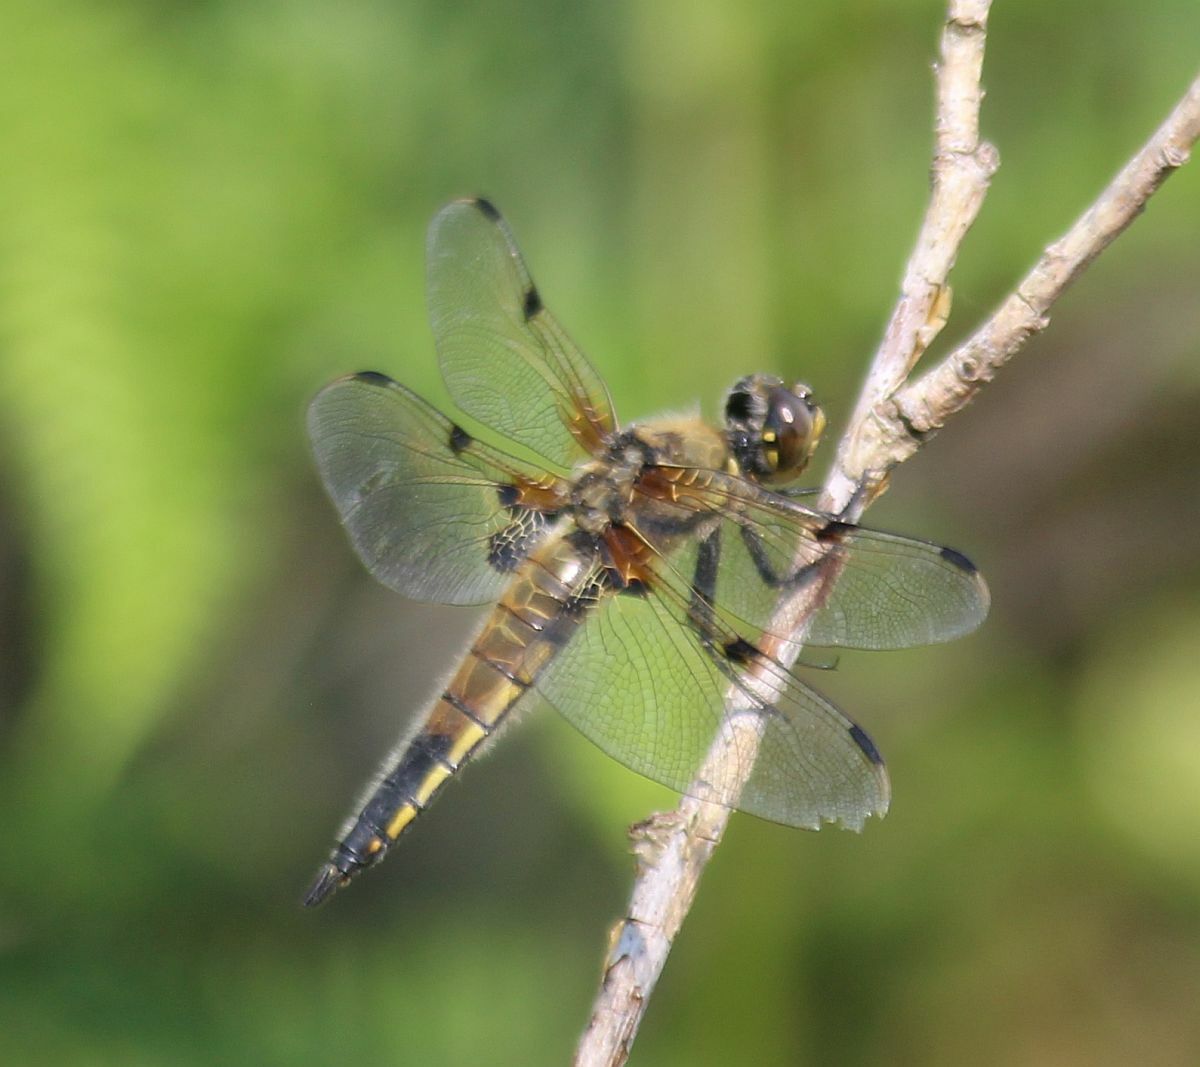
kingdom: Animalia
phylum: Arthropoda
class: Insecta
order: Odonata
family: Libellulidae
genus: Libellula
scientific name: Libellula quadrimaculata
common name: Four-spotted chaser
